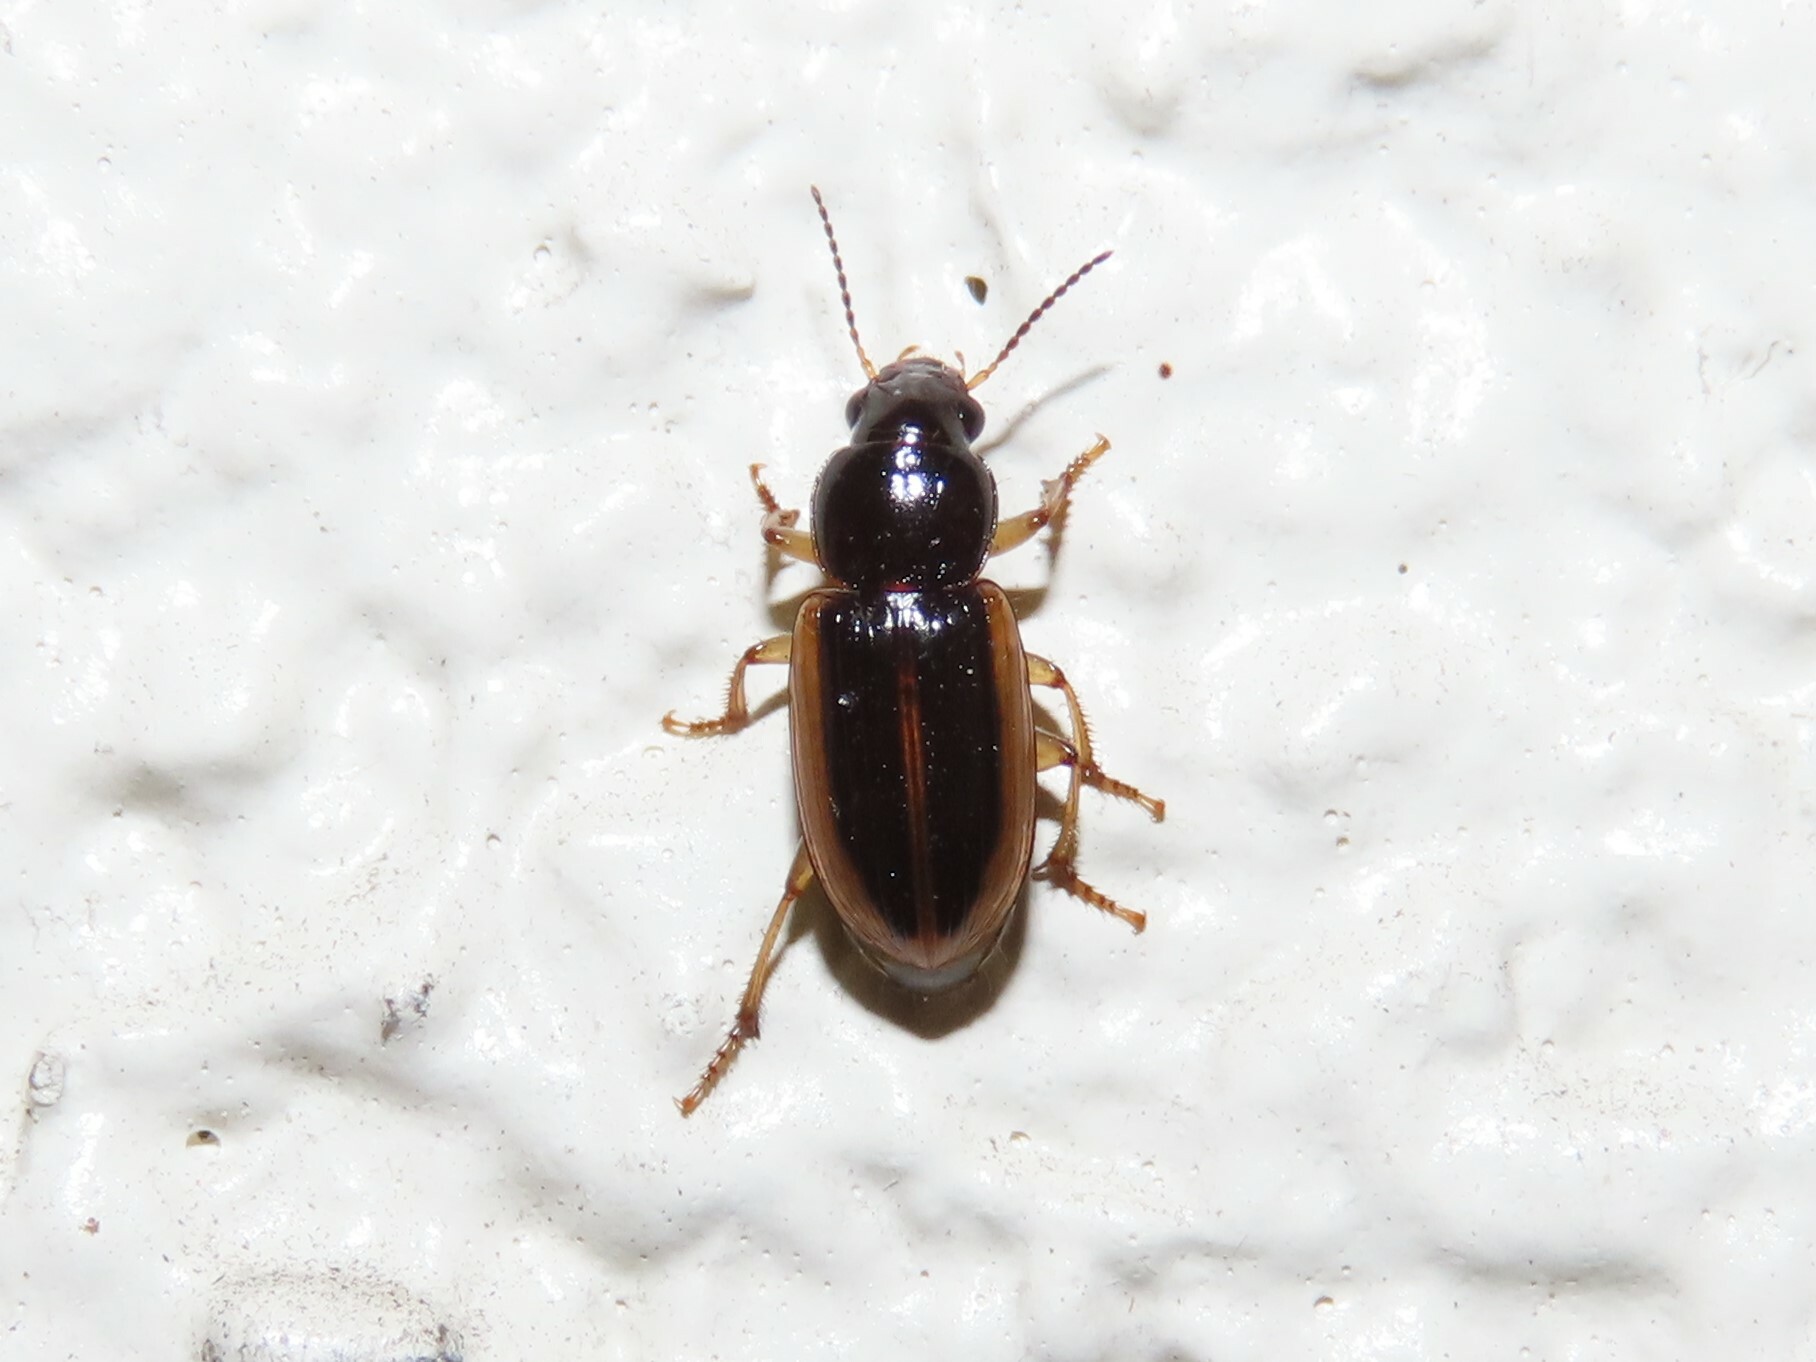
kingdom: Animalia
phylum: Arthropoda
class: Insecta
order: Coleoptera
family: Carabidae
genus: Stenolophus
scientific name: Stenolophus infuscatus
